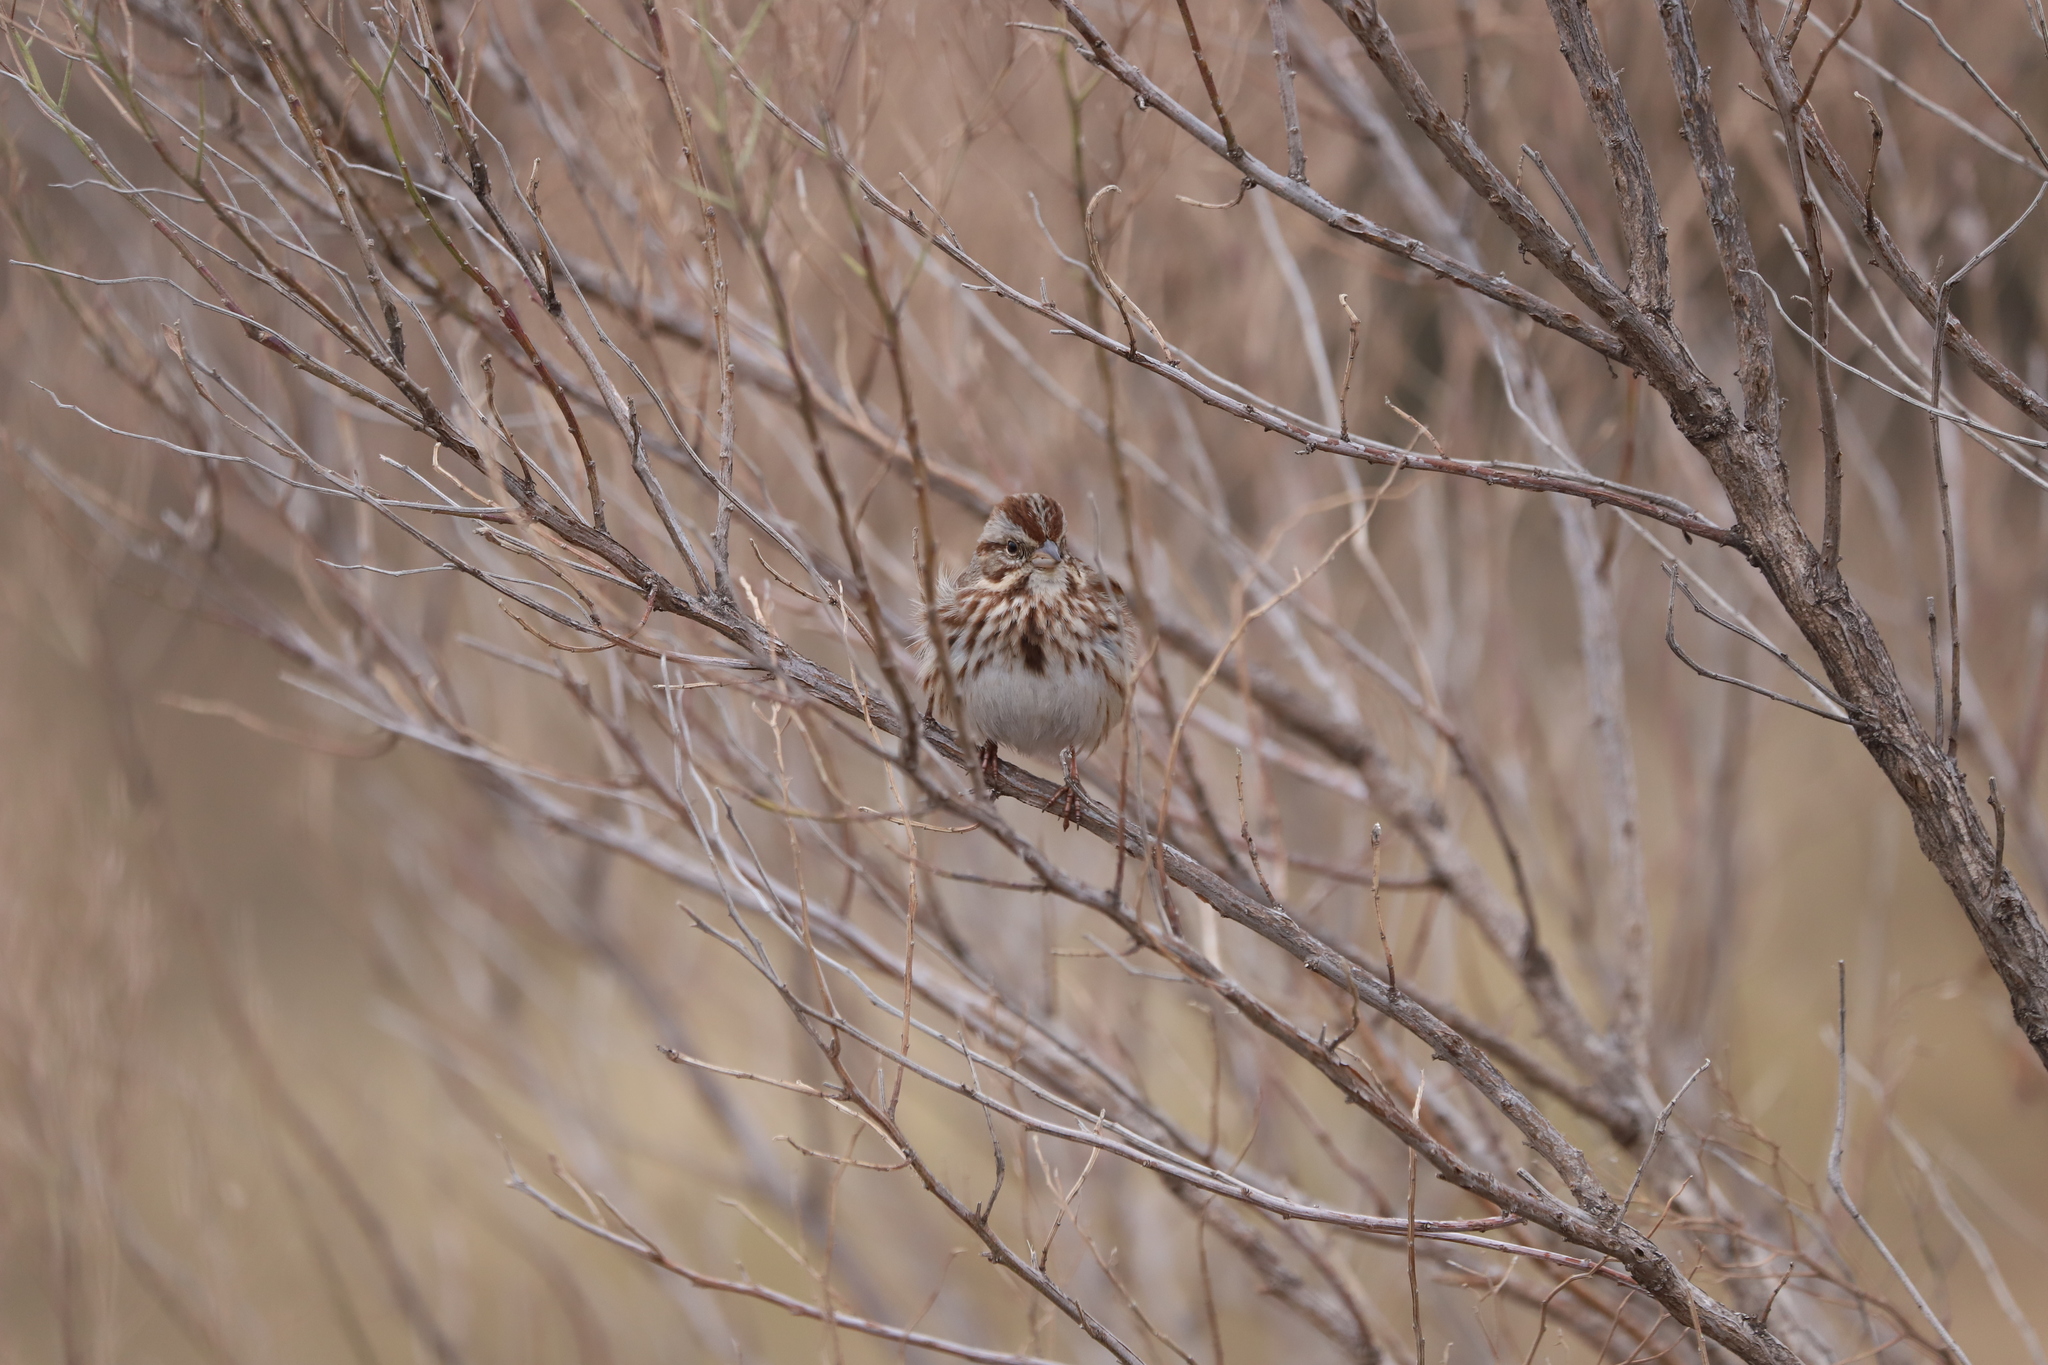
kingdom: Animalia
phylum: Chordata
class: Aves
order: Passeriformes
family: Passerellidae
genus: Melospiza
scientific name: Melospiza melodia
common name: Song sparrow
